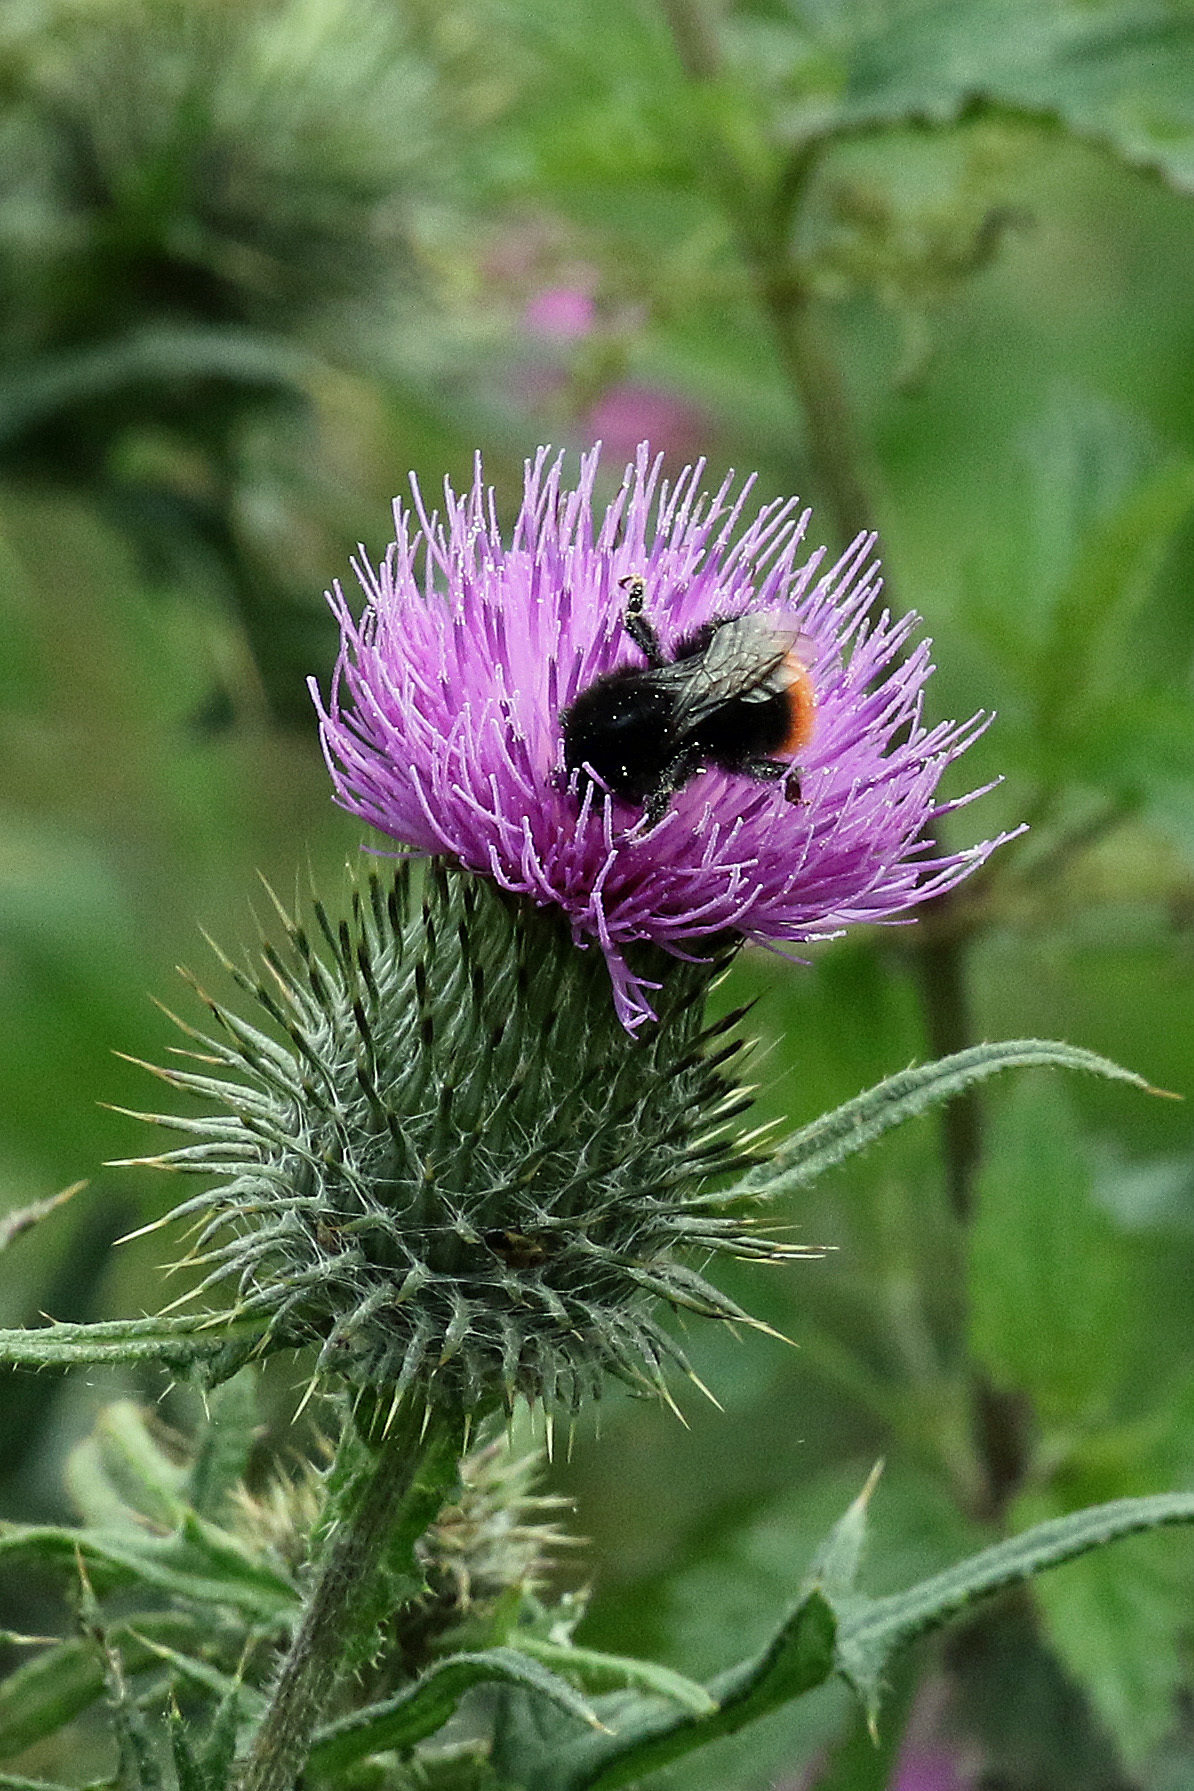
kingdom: Animalia
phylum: Arthropoda
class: Insecta
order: Hymenoptera
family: Apidae
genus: Bombus
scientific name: Bombus lapidarius
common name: Large red-tailed humble-bee
